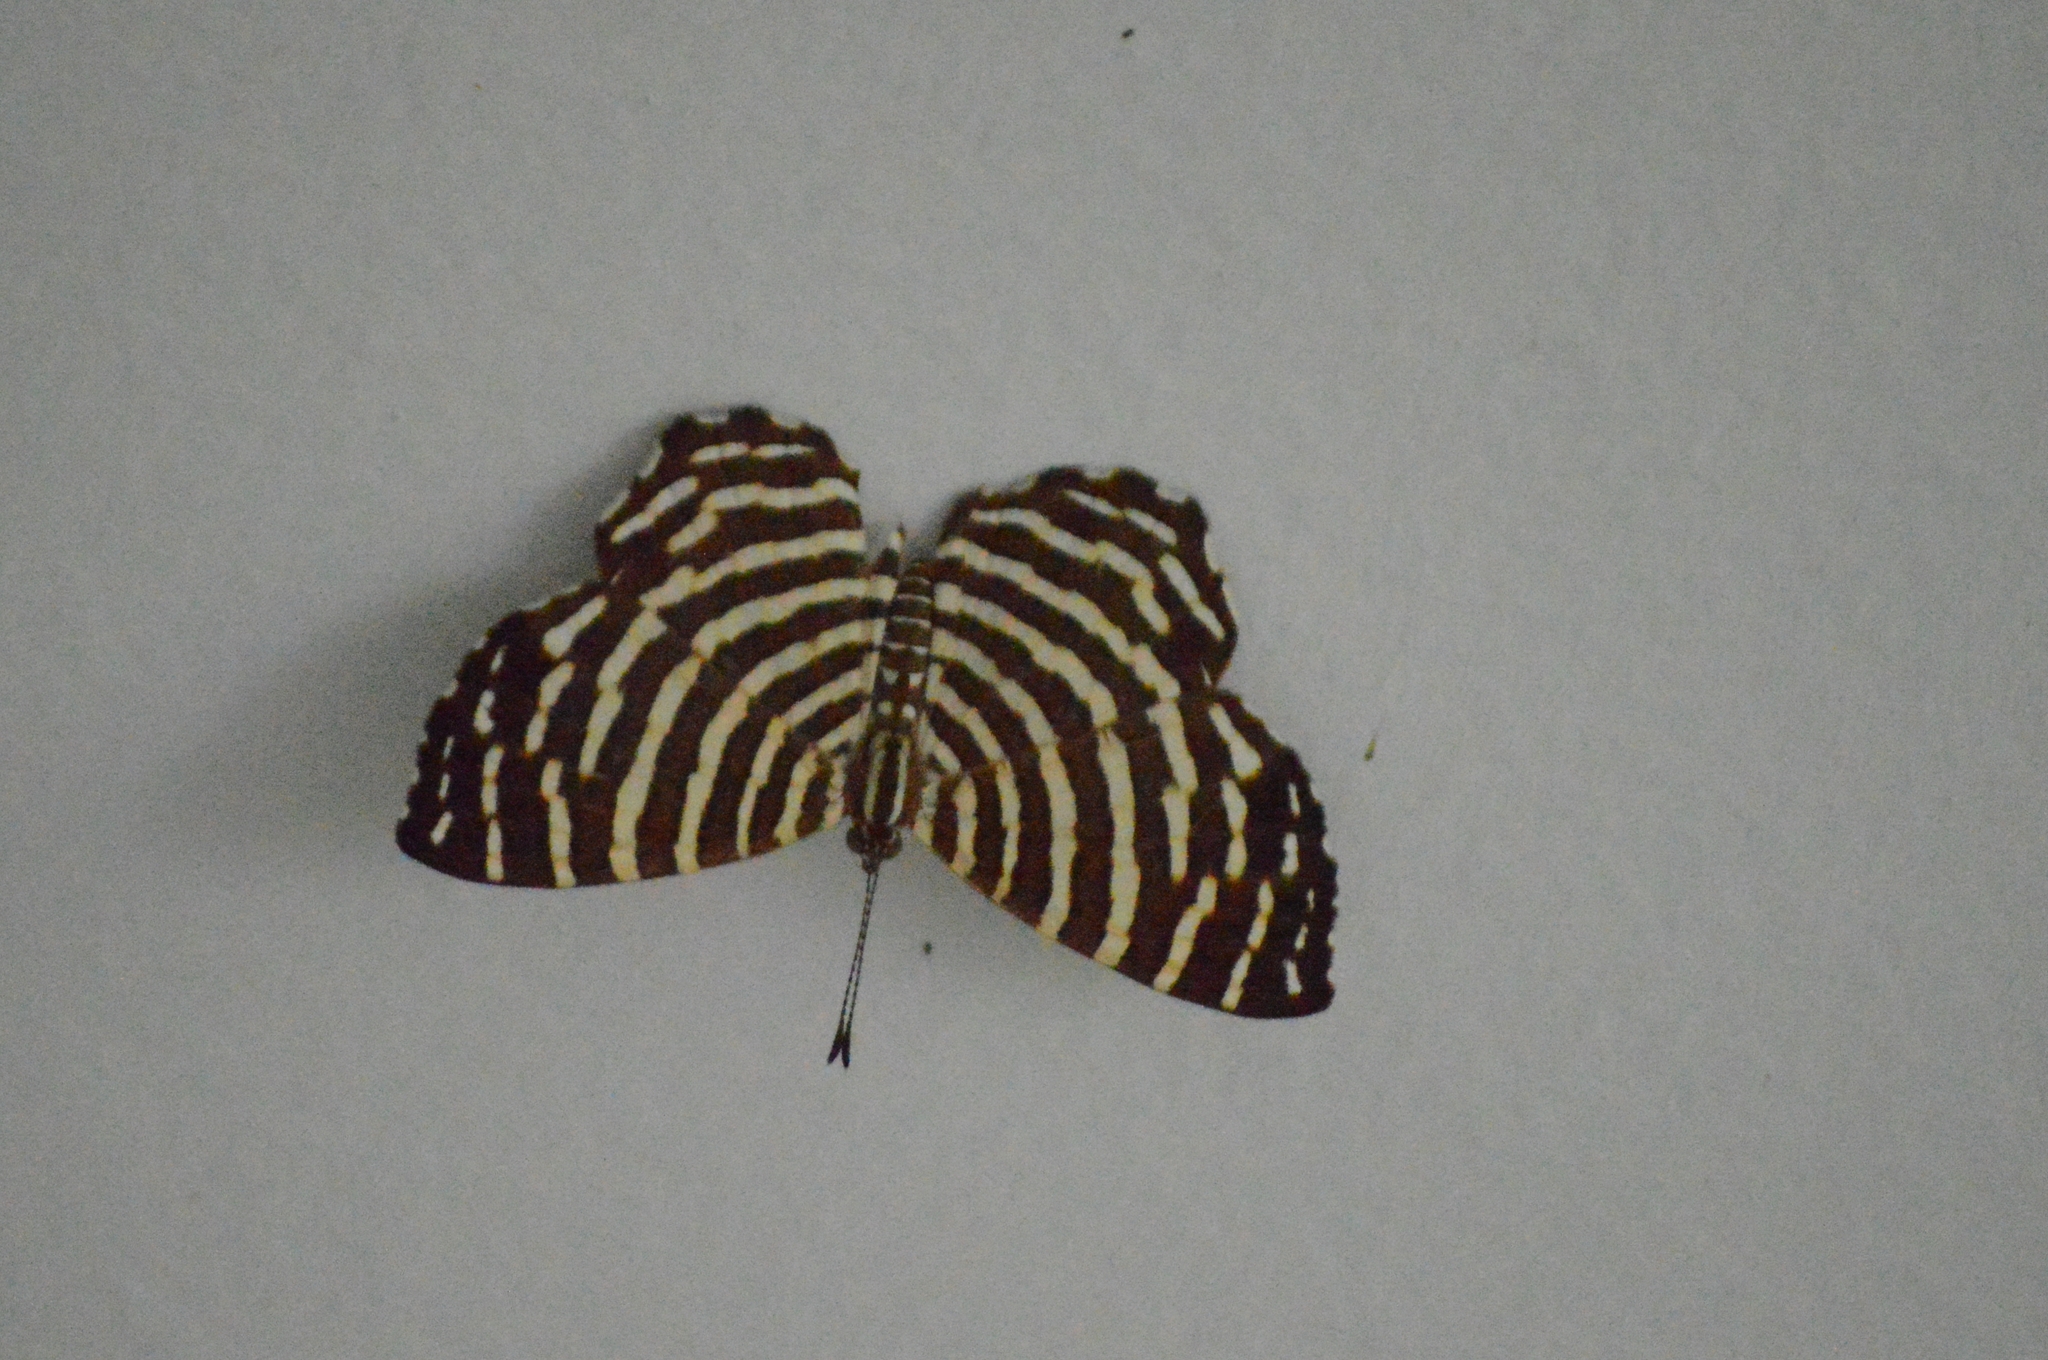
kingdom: Animalia
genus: Hyphilaria
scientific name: Hyphilaria thasus
